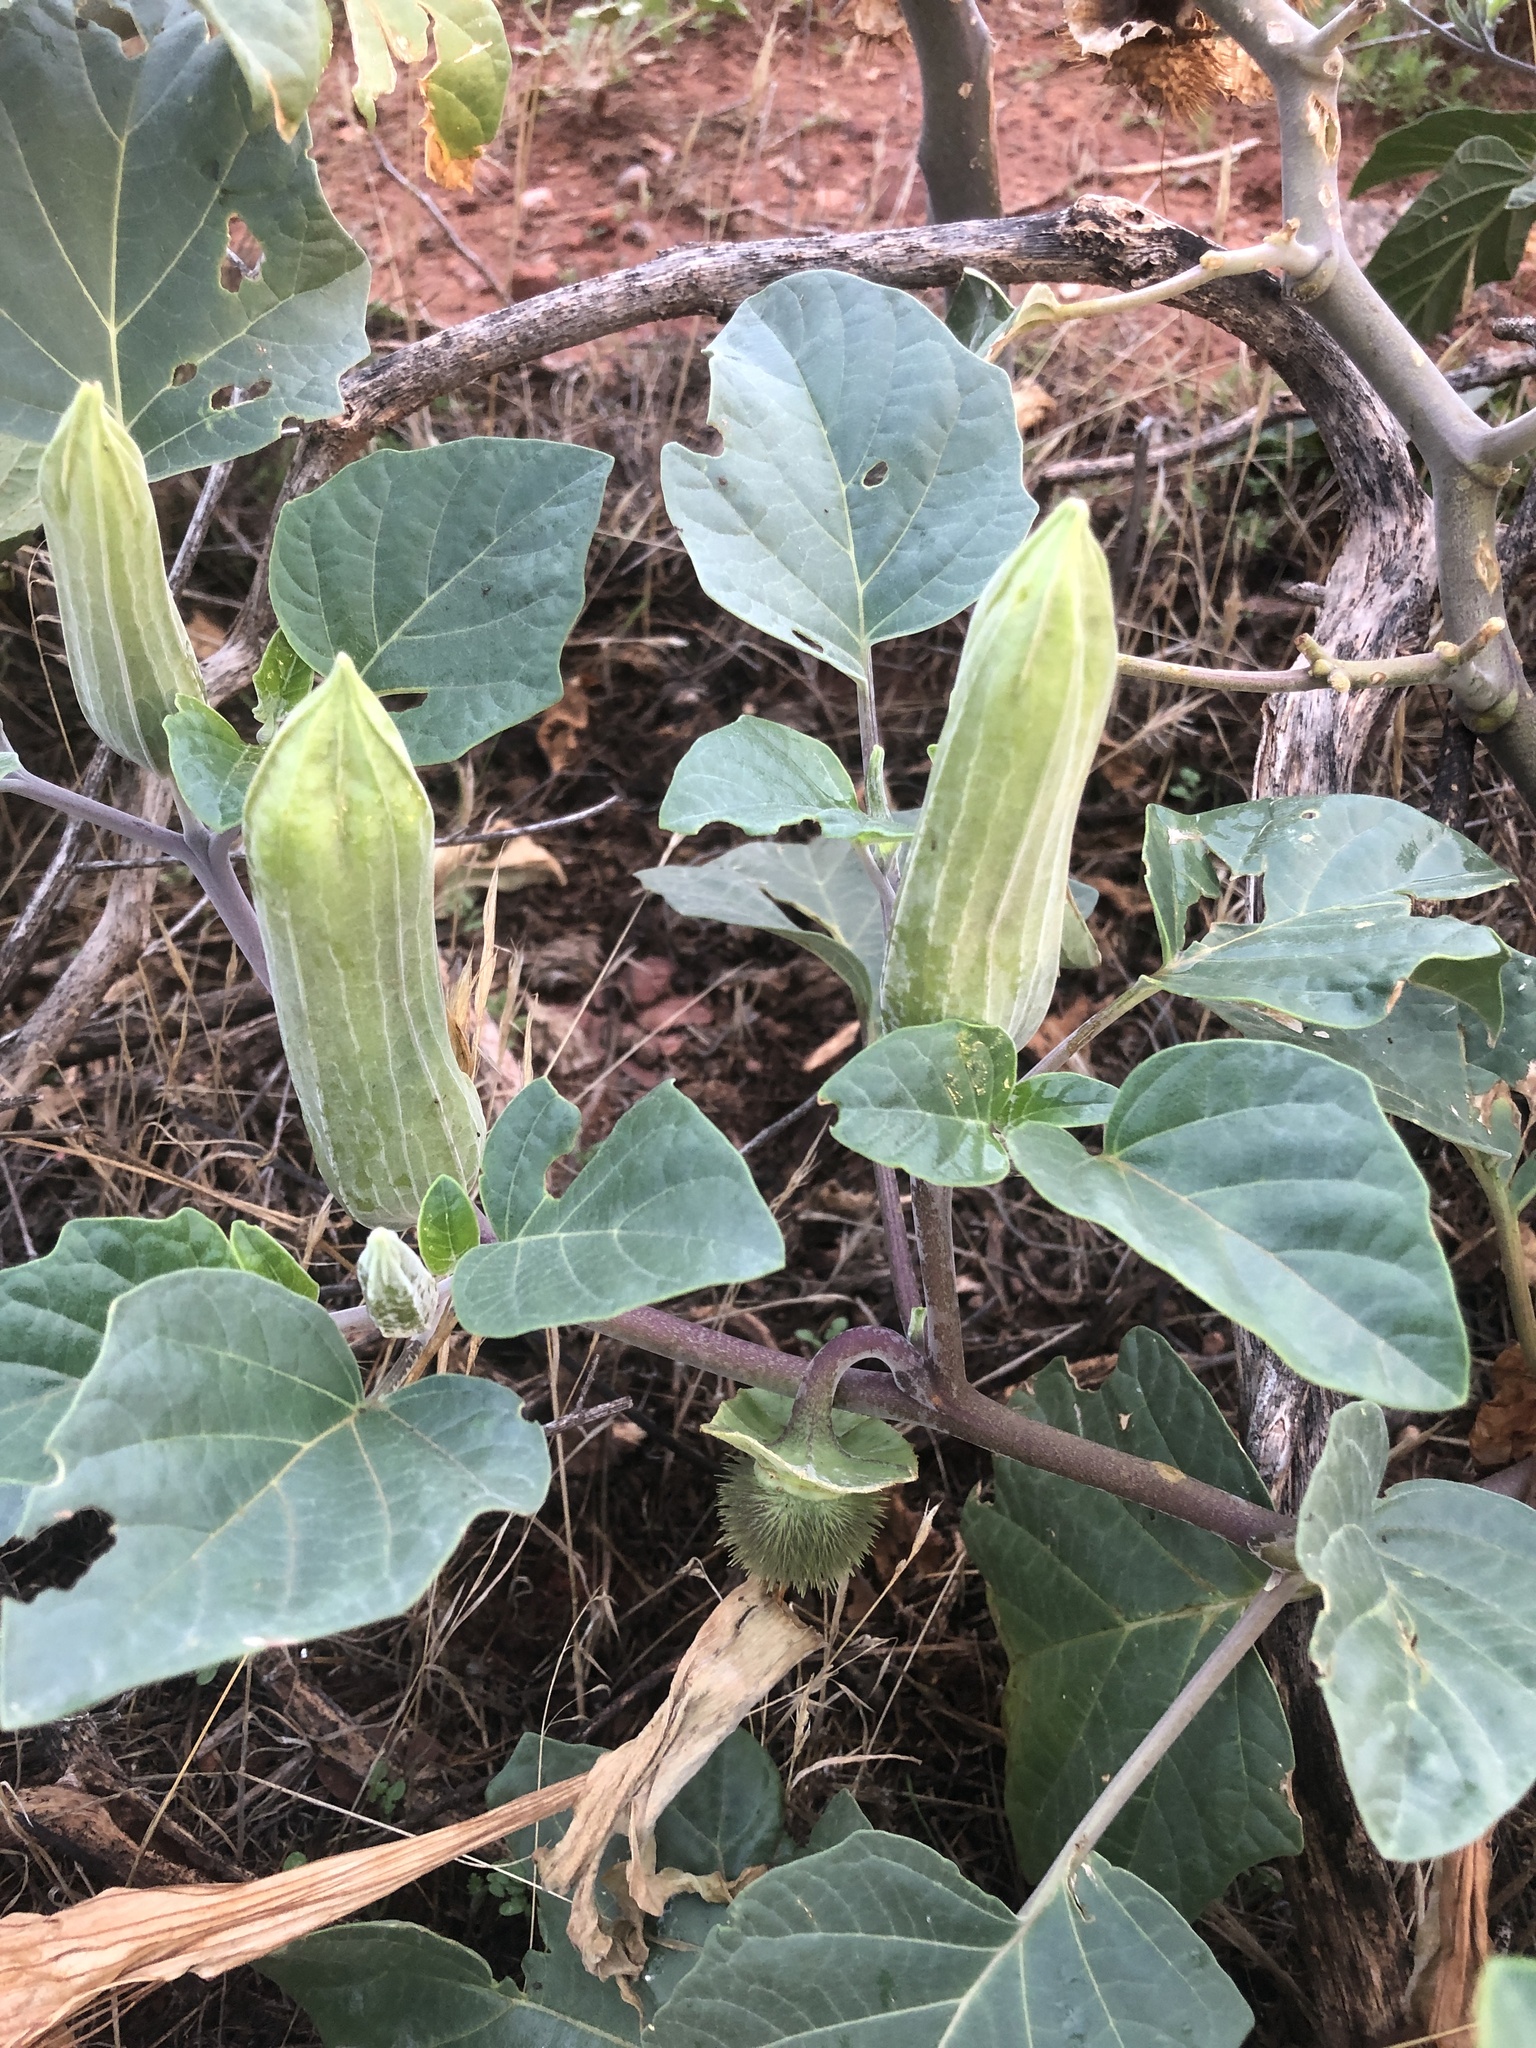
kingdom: Plantae
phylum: Tracheophyta
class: Magnoliopsida
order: Solanales
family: Solanaceae
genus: Datura
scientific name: Datura wrightii
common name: Sacred thorn-apple
